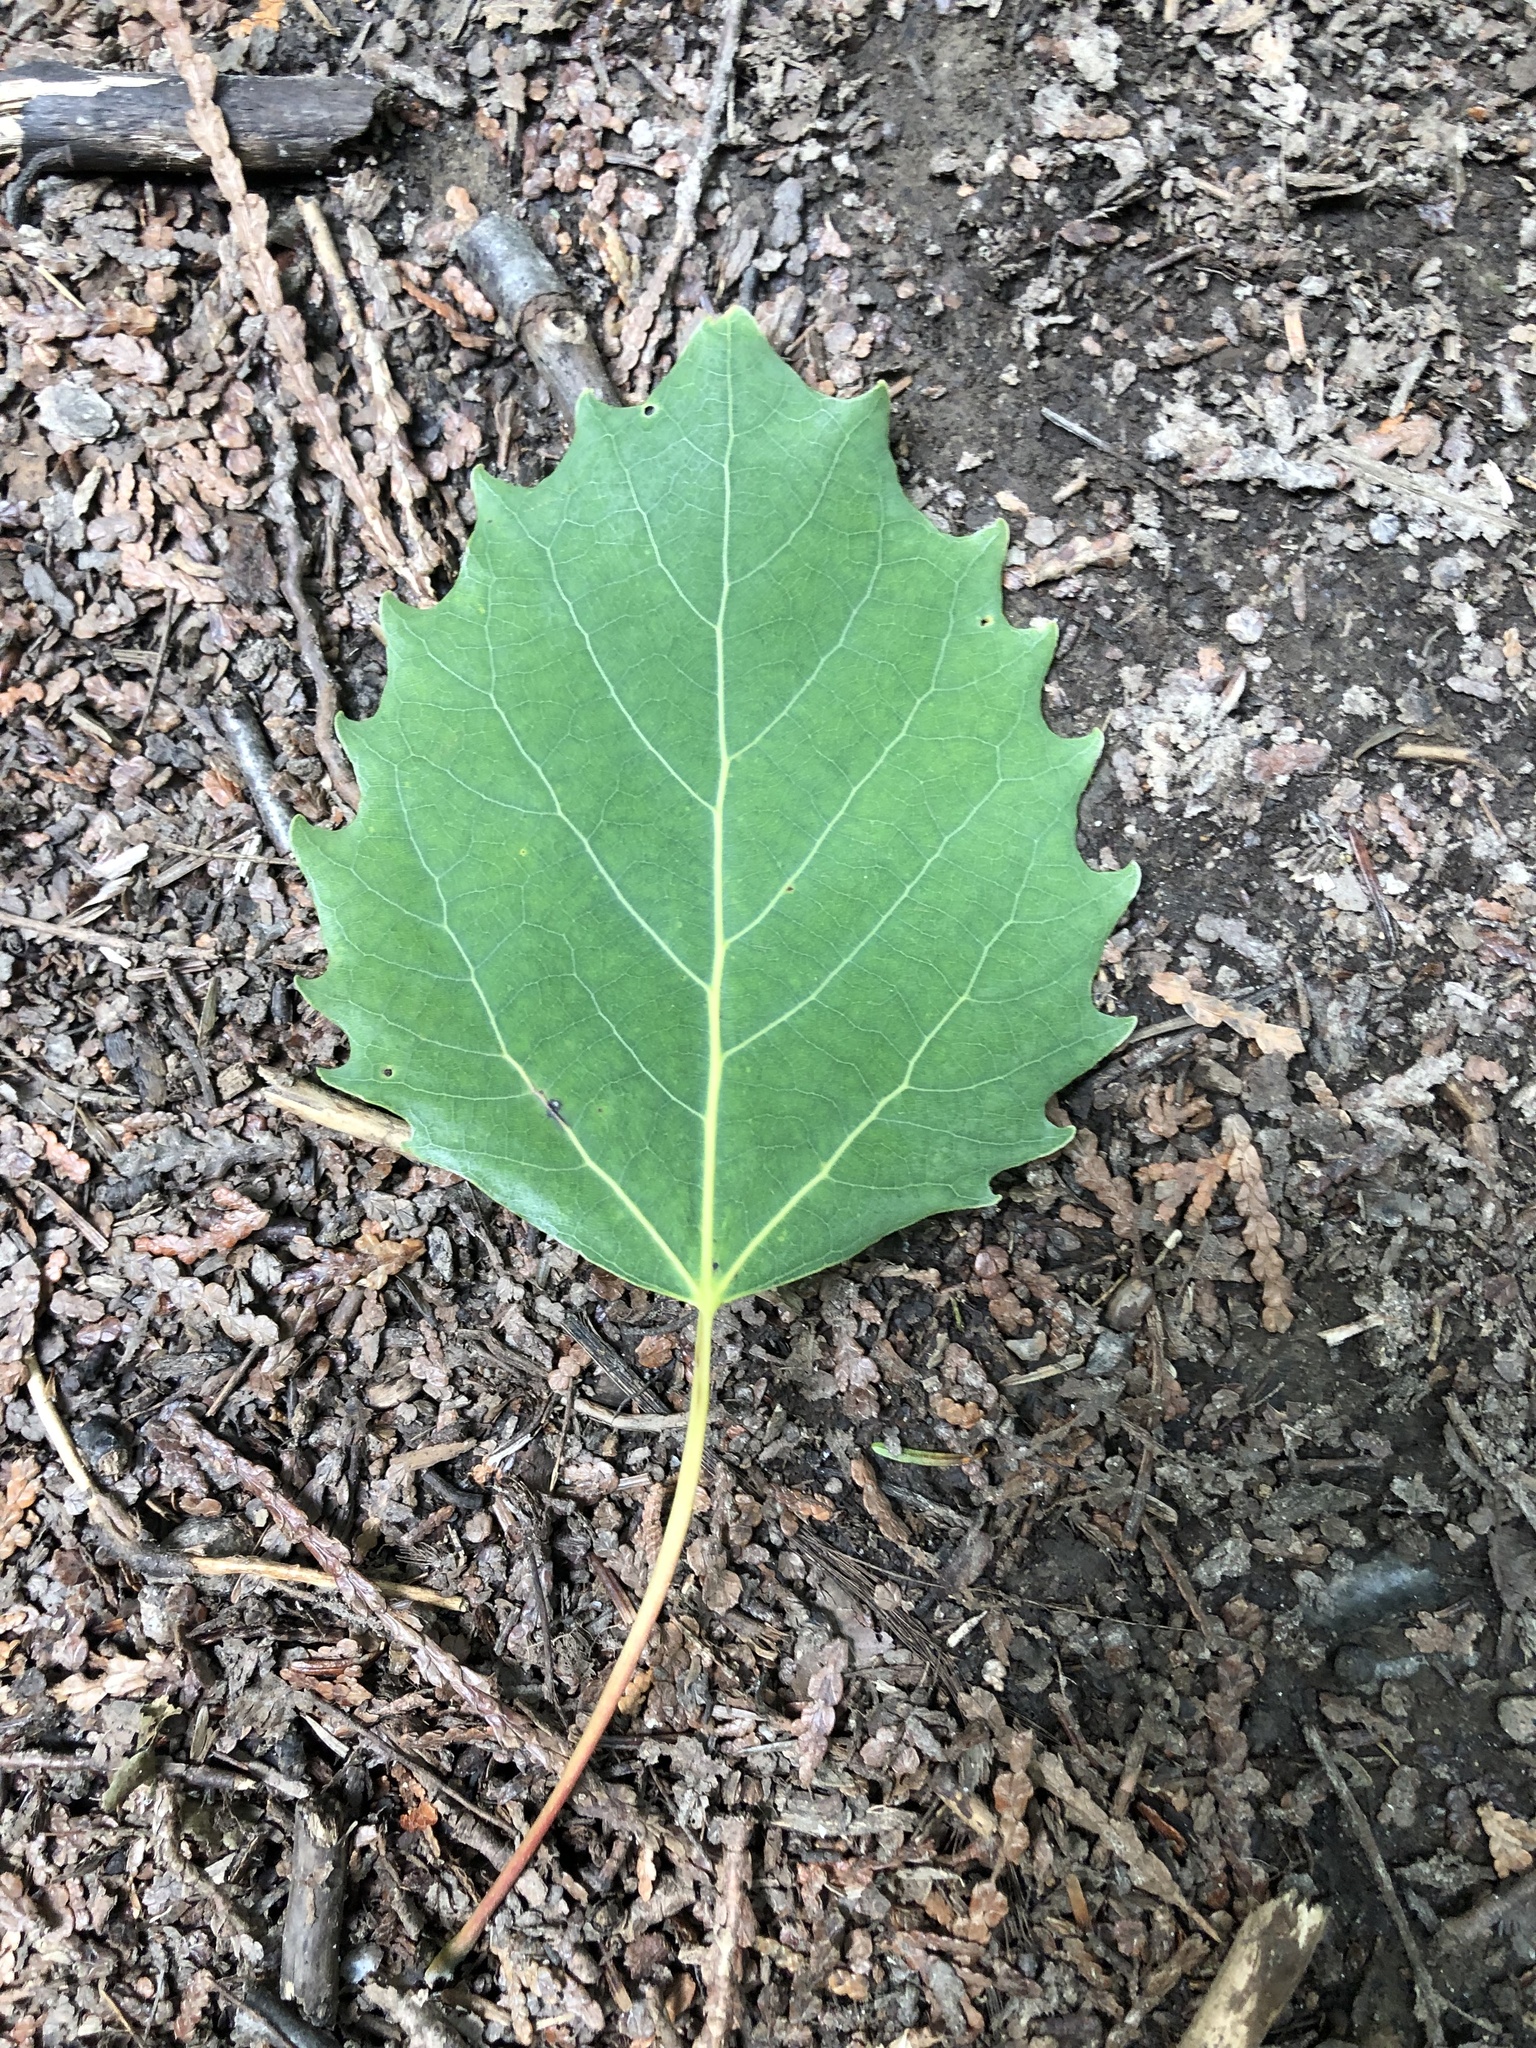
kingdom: Plantae
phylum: Tracheophyta
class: Magnoliopsida
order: Malpighiales
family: Salicaceae
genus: Populus
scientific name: Populus grandidentata
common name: Bigtooth aspen
